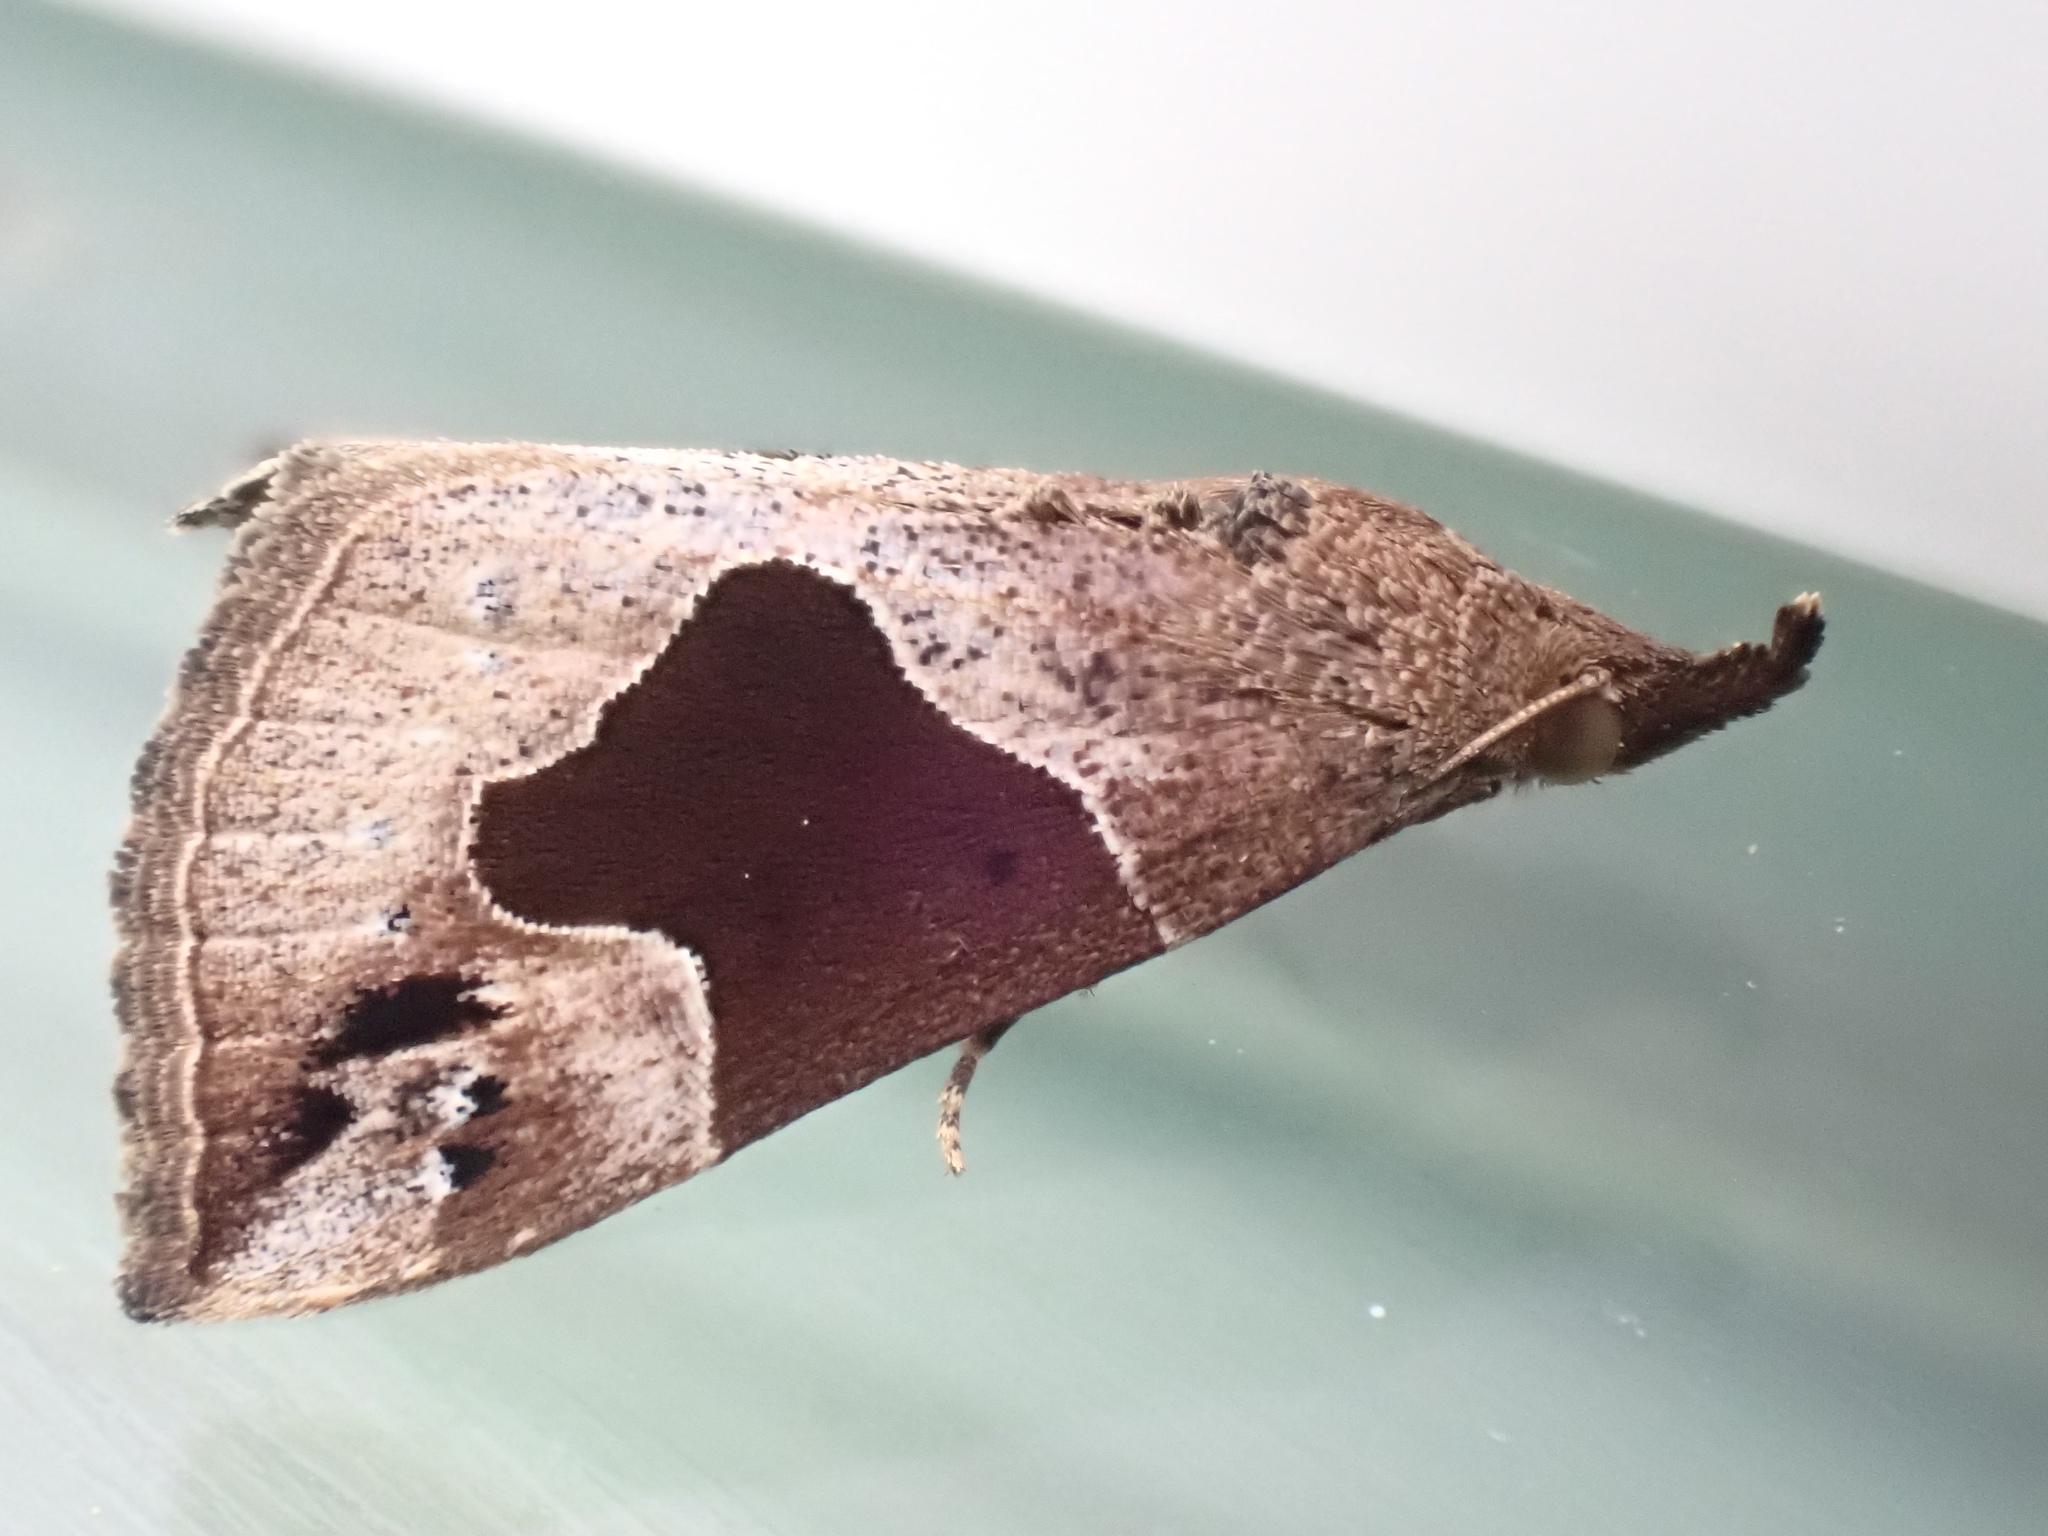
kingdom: Animalia
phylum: Arthropoda
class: Insecta
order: Lepidoptera
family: Erebidae
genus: Hypena
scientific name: Hypena manalis
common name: Flowing-line bomolocha moth
